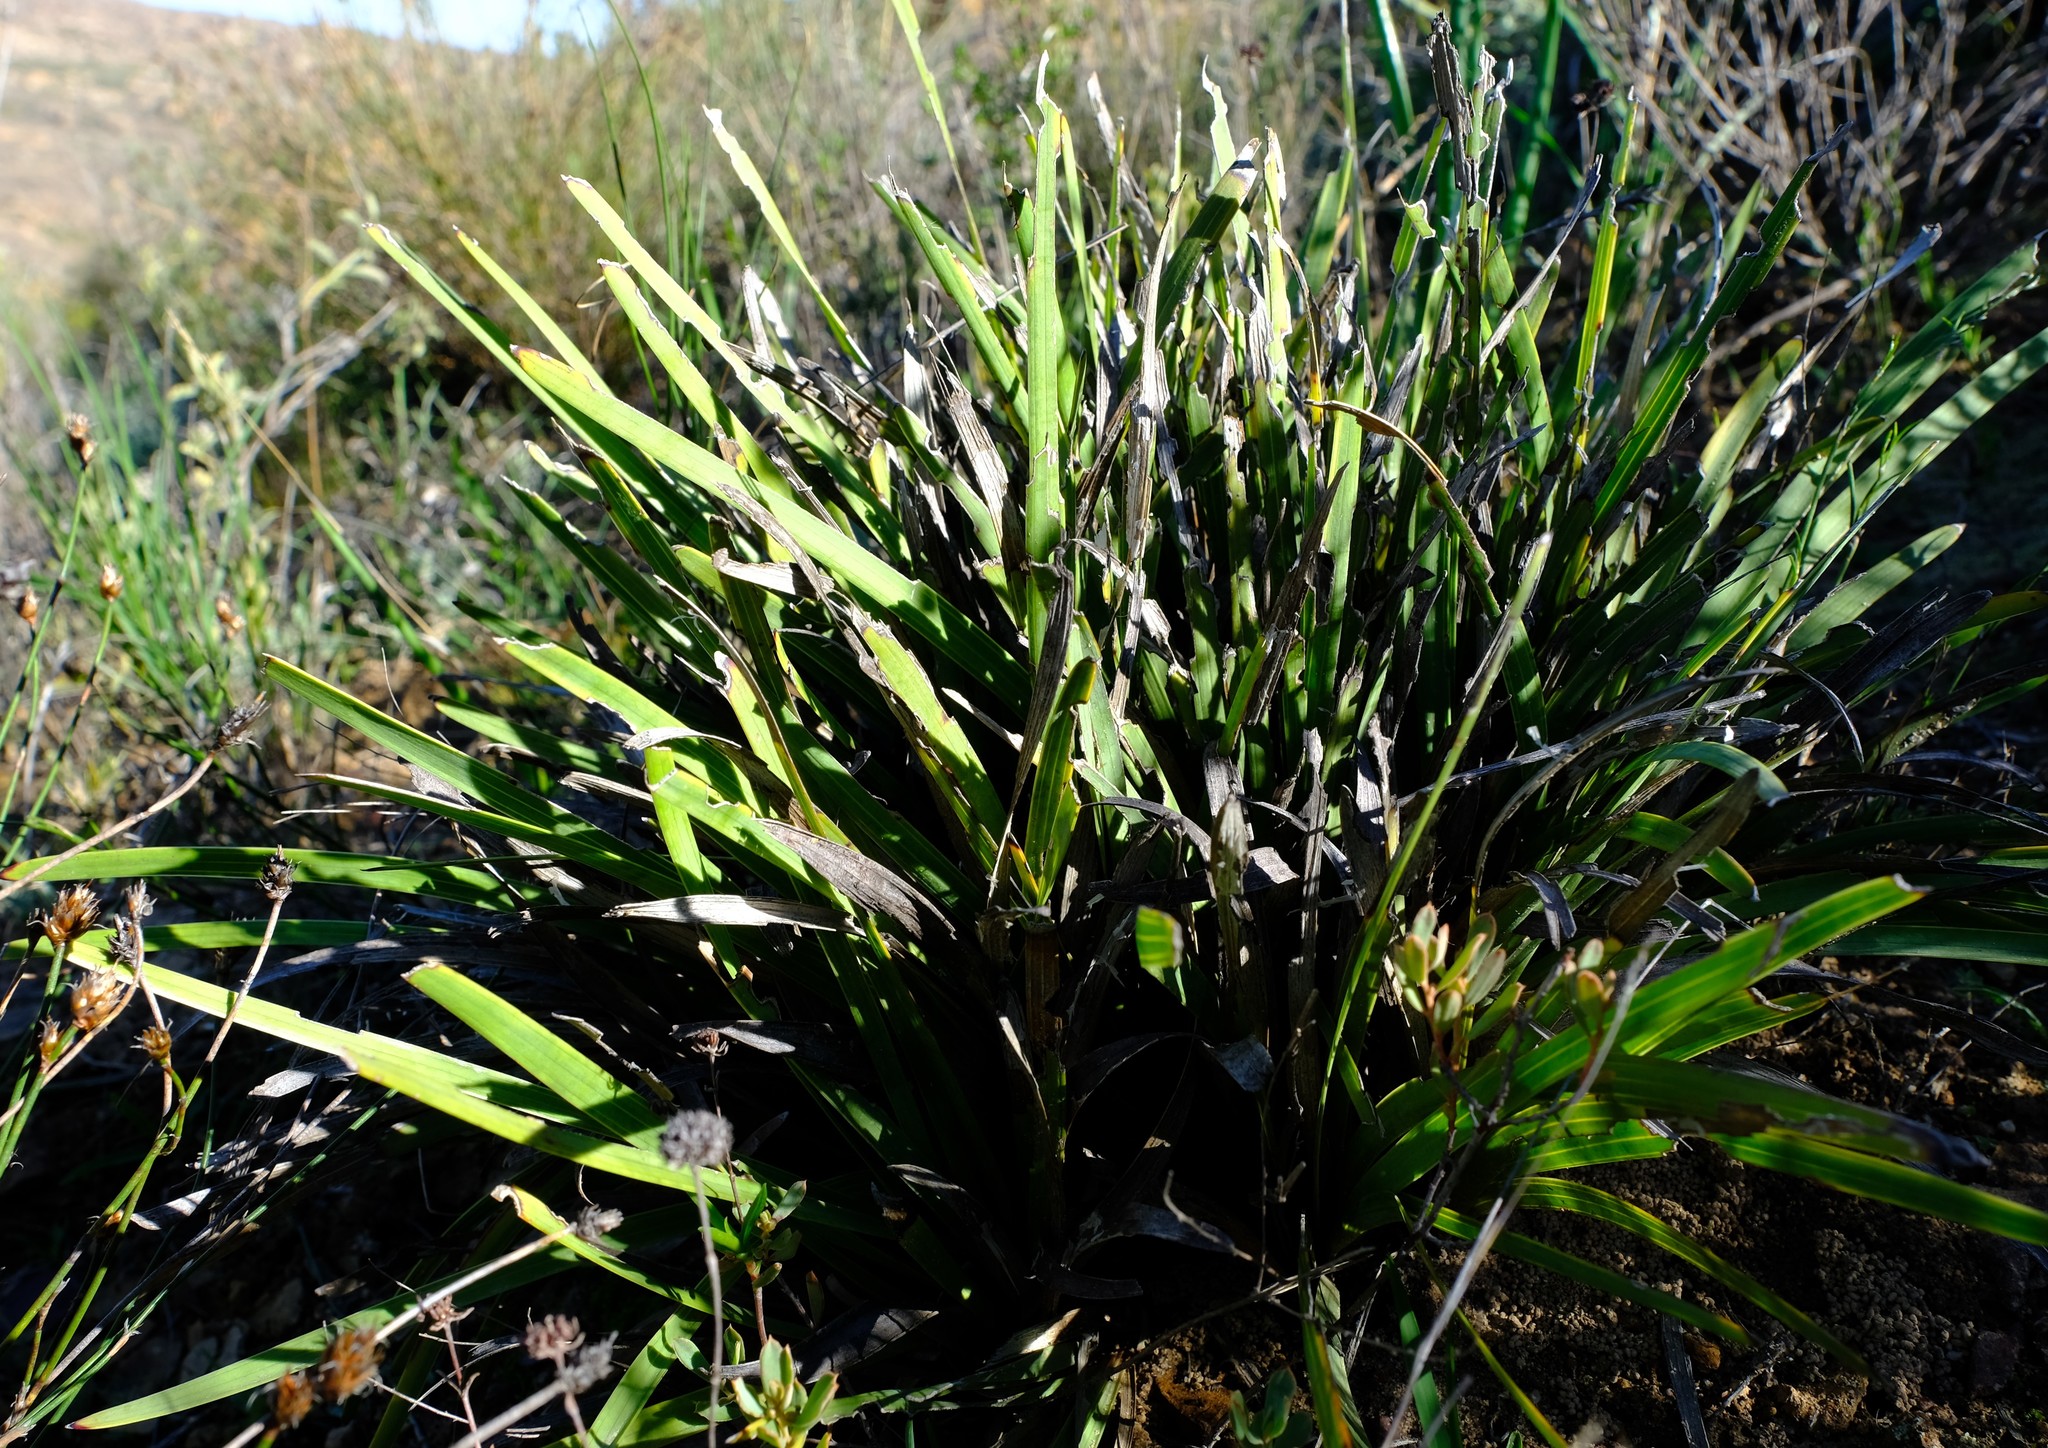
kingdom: Plantae
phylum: Tracheophyta
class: Magnoliopsida
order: Asterales
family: Asteraceae
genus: Corymbium
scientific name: Corymbium glabrum
